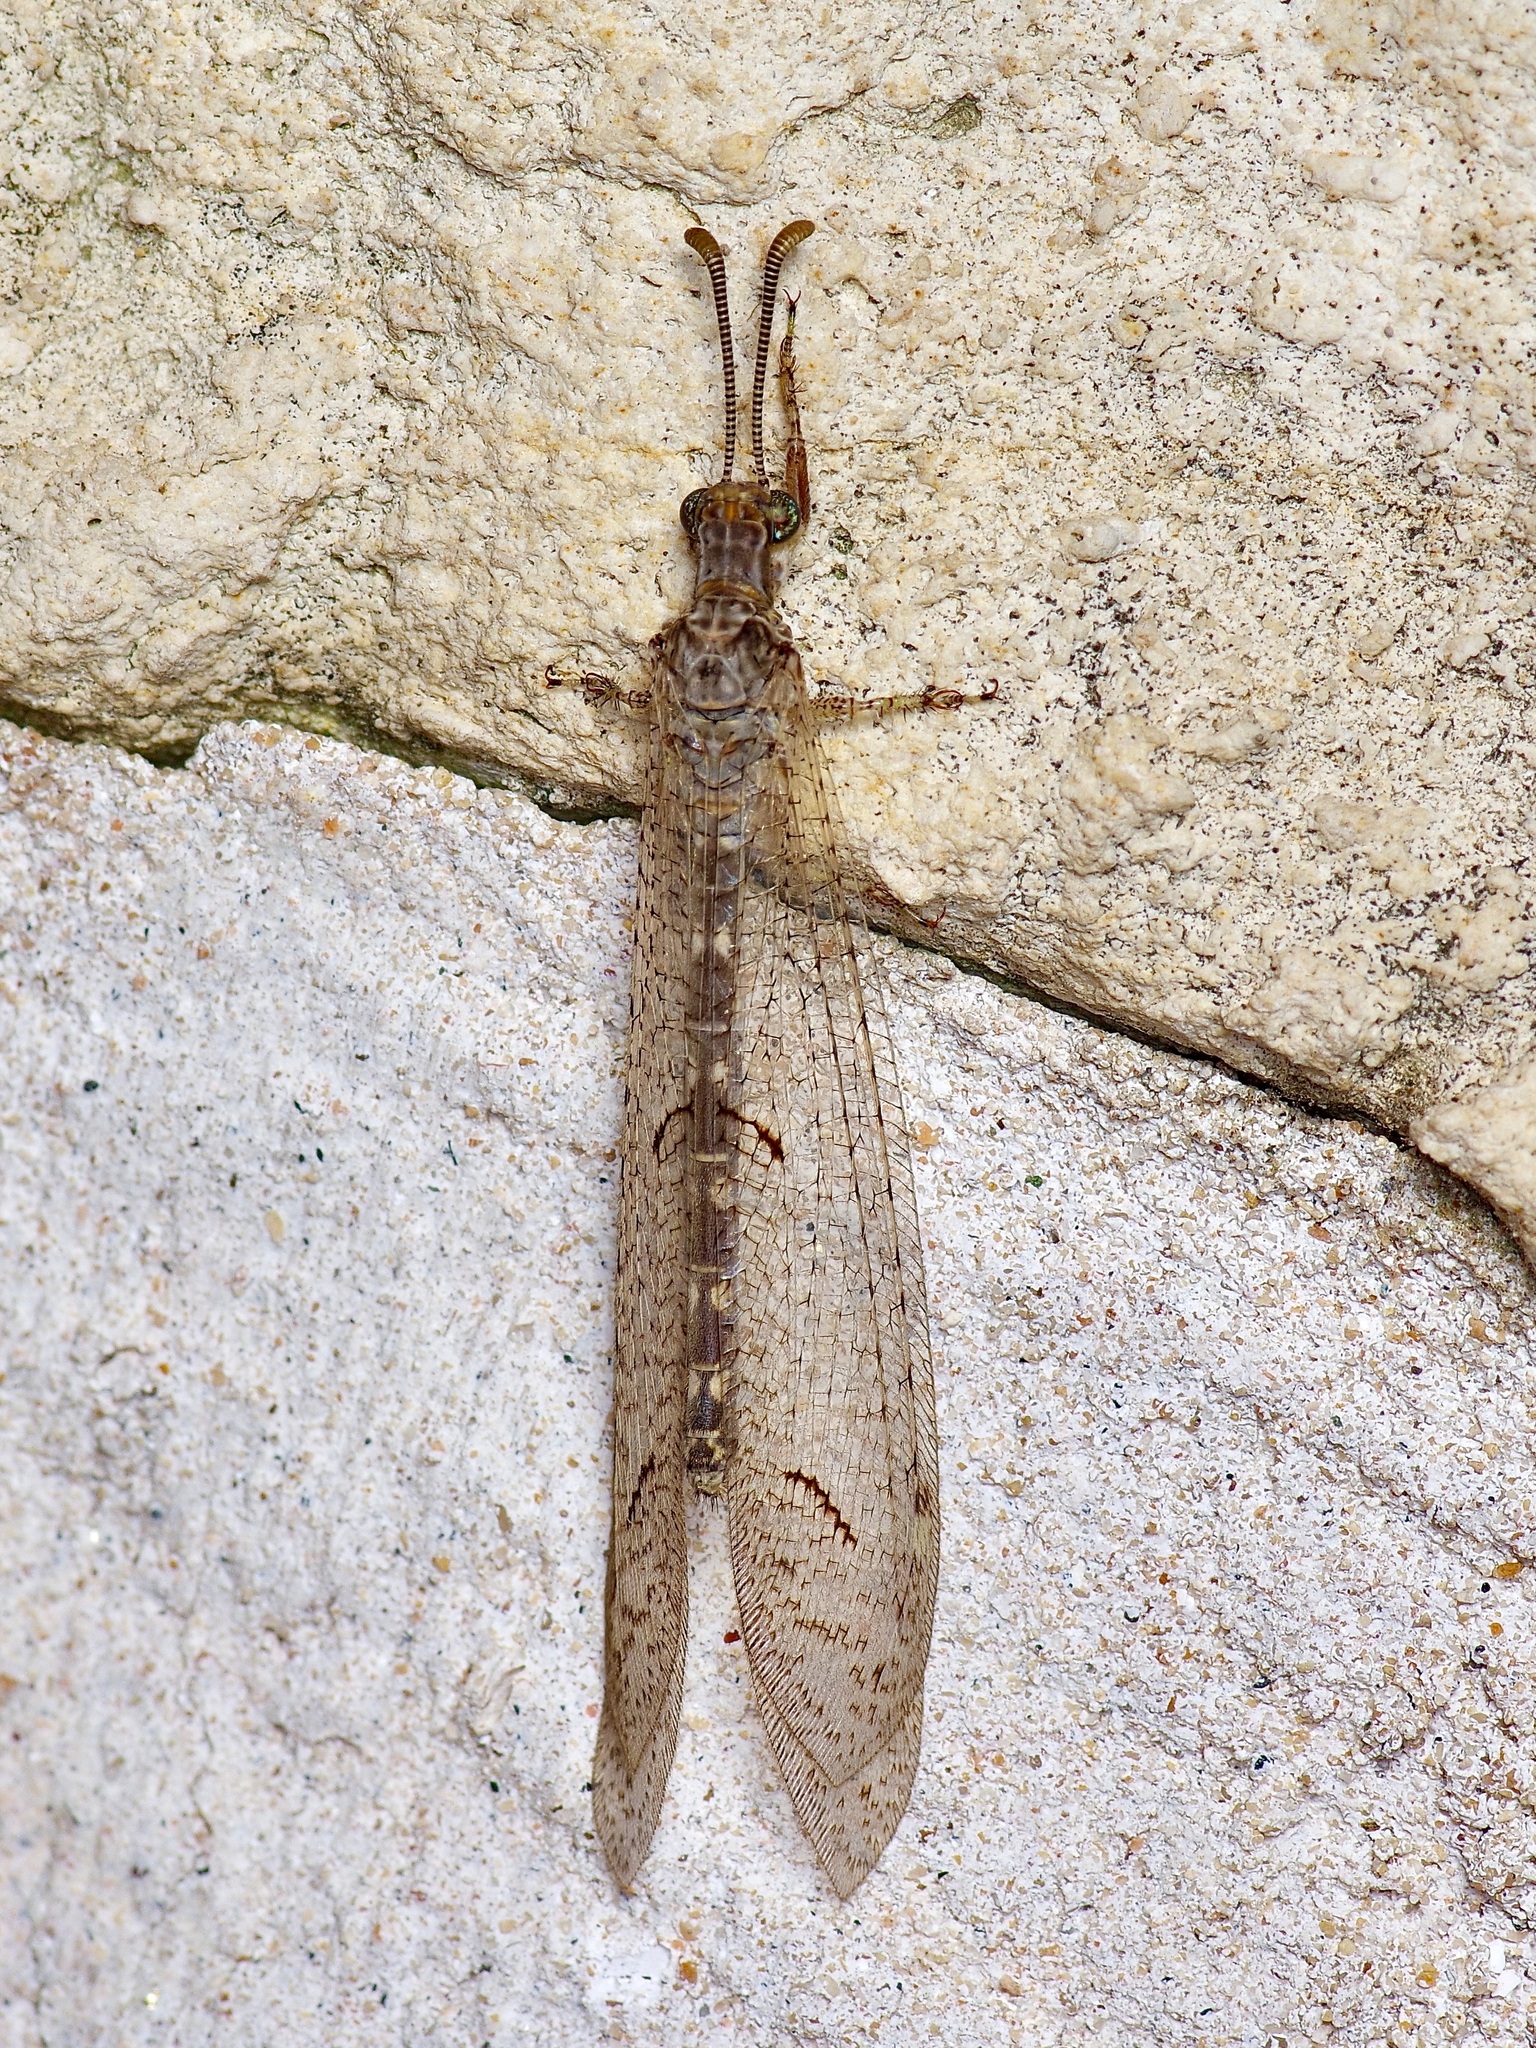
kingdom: Animalia
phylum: Arthropoda
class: Insecta
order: Neuroptera
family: Myrmeleontidae
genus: Euptilon
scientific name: Euptilon ornatum
